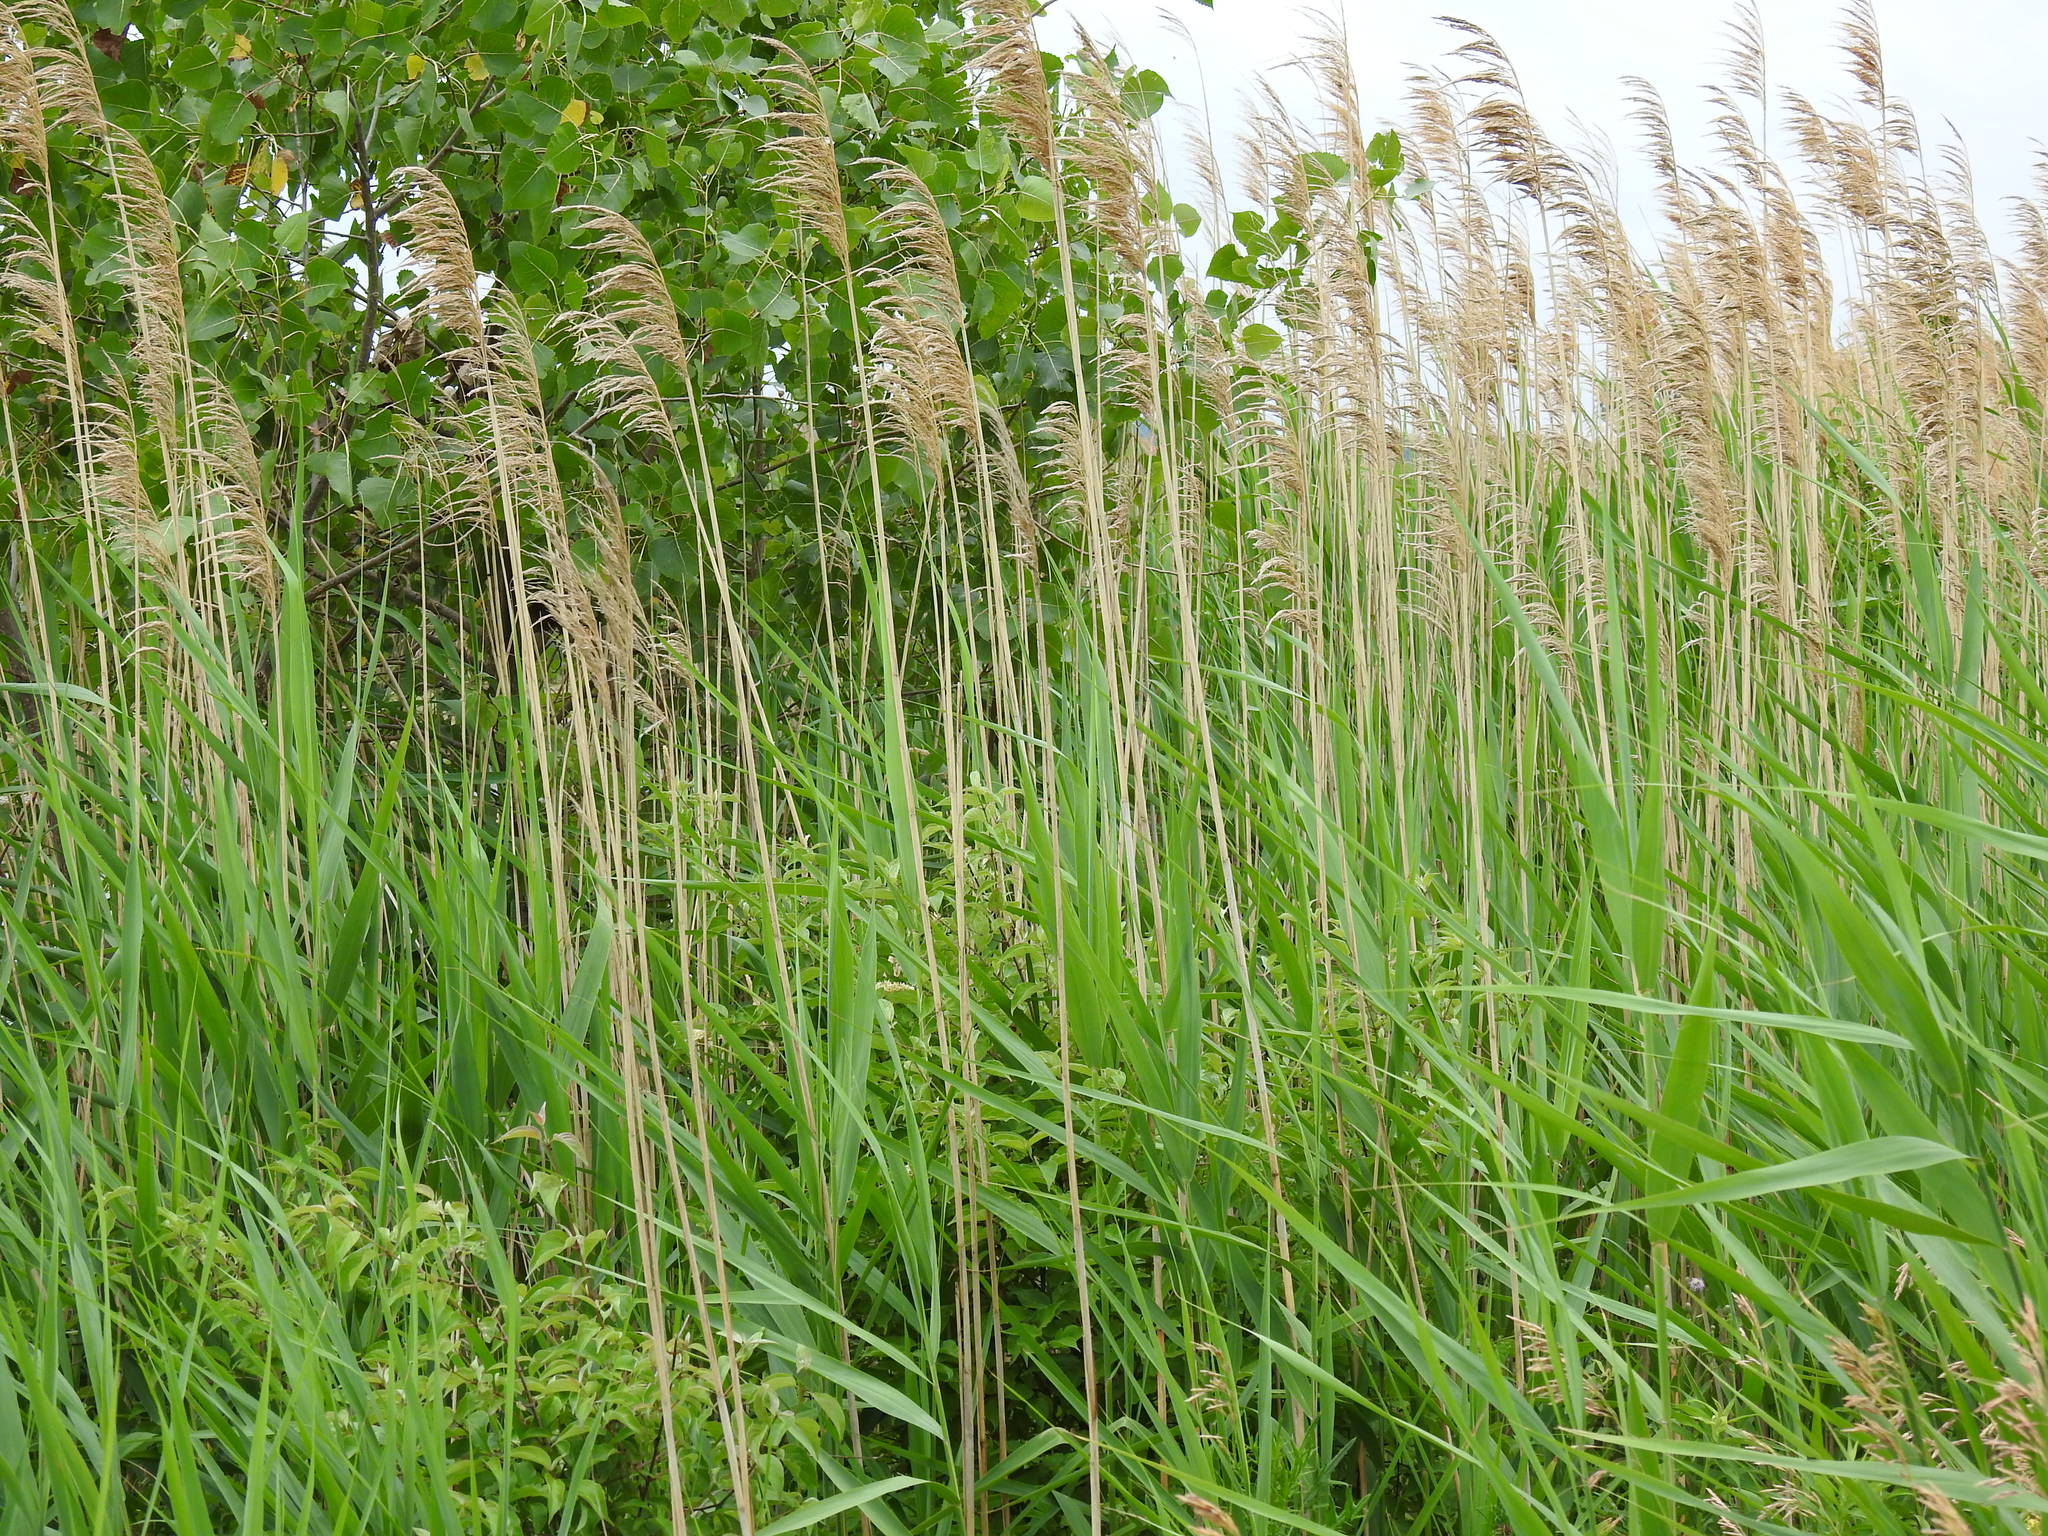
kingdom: Plantae
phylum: Tracheophyta
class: Liliopsida
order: Poales
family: Poaceae
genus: Phragmites
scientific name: Phragmites australis
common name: Common reed
